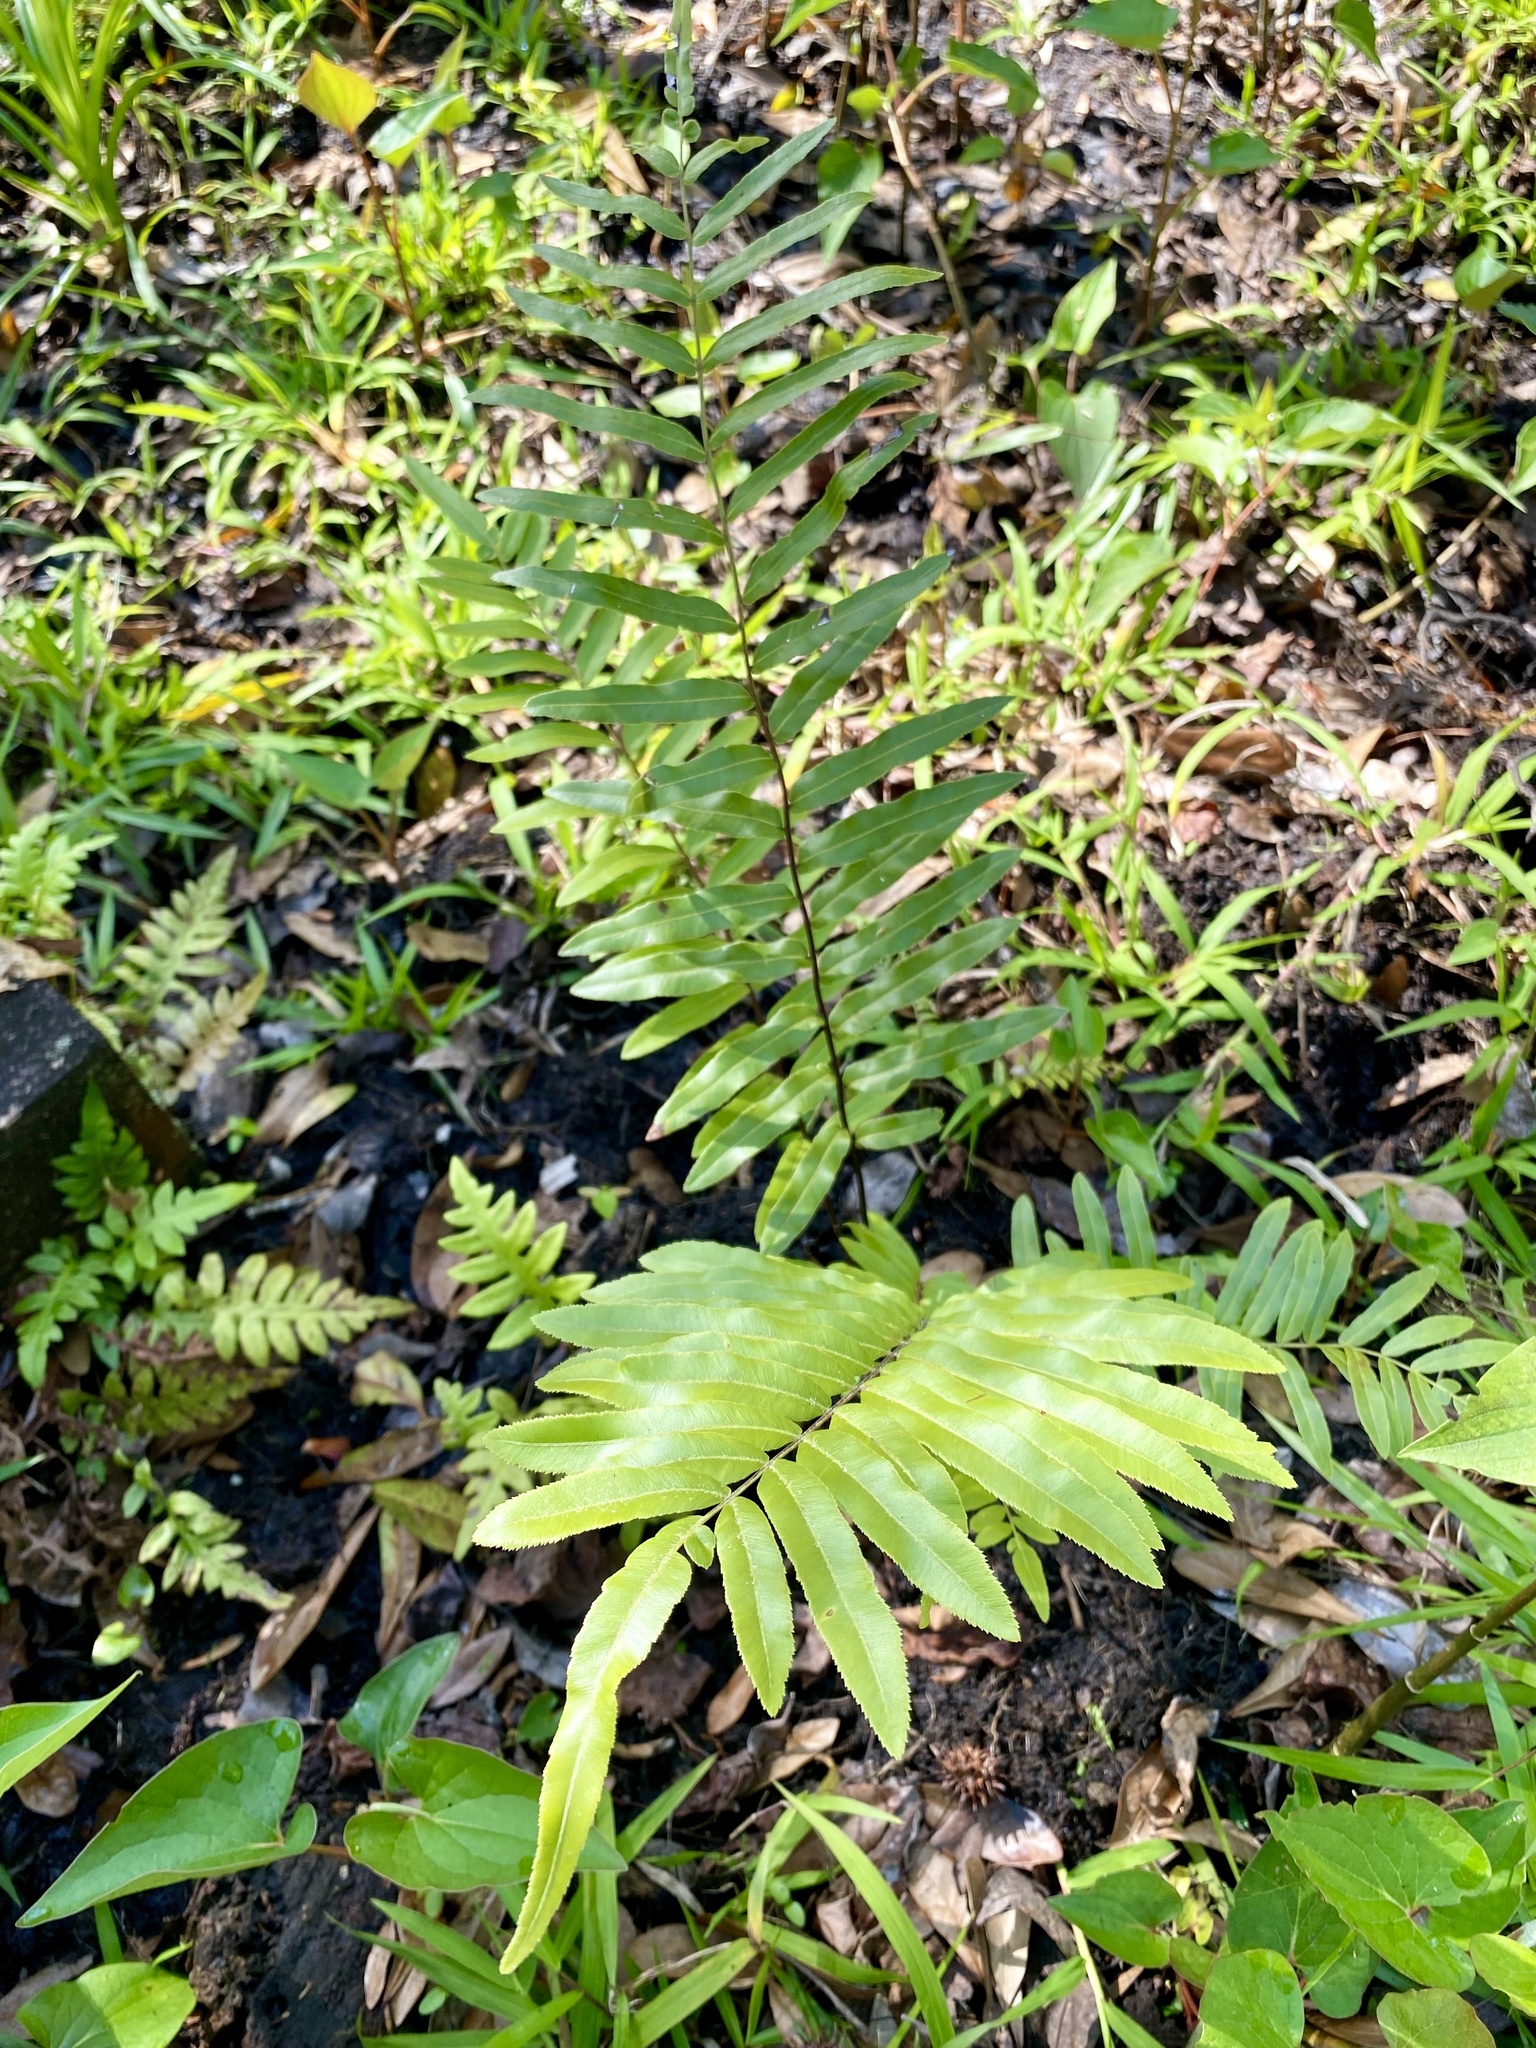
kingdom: Plantae
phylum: Tracheophyta
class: Polypodiopsida
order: Polypodiales
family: Blechnaceae
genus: Telmatoblechnum
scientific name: Telmatoblechnum serrulatum
